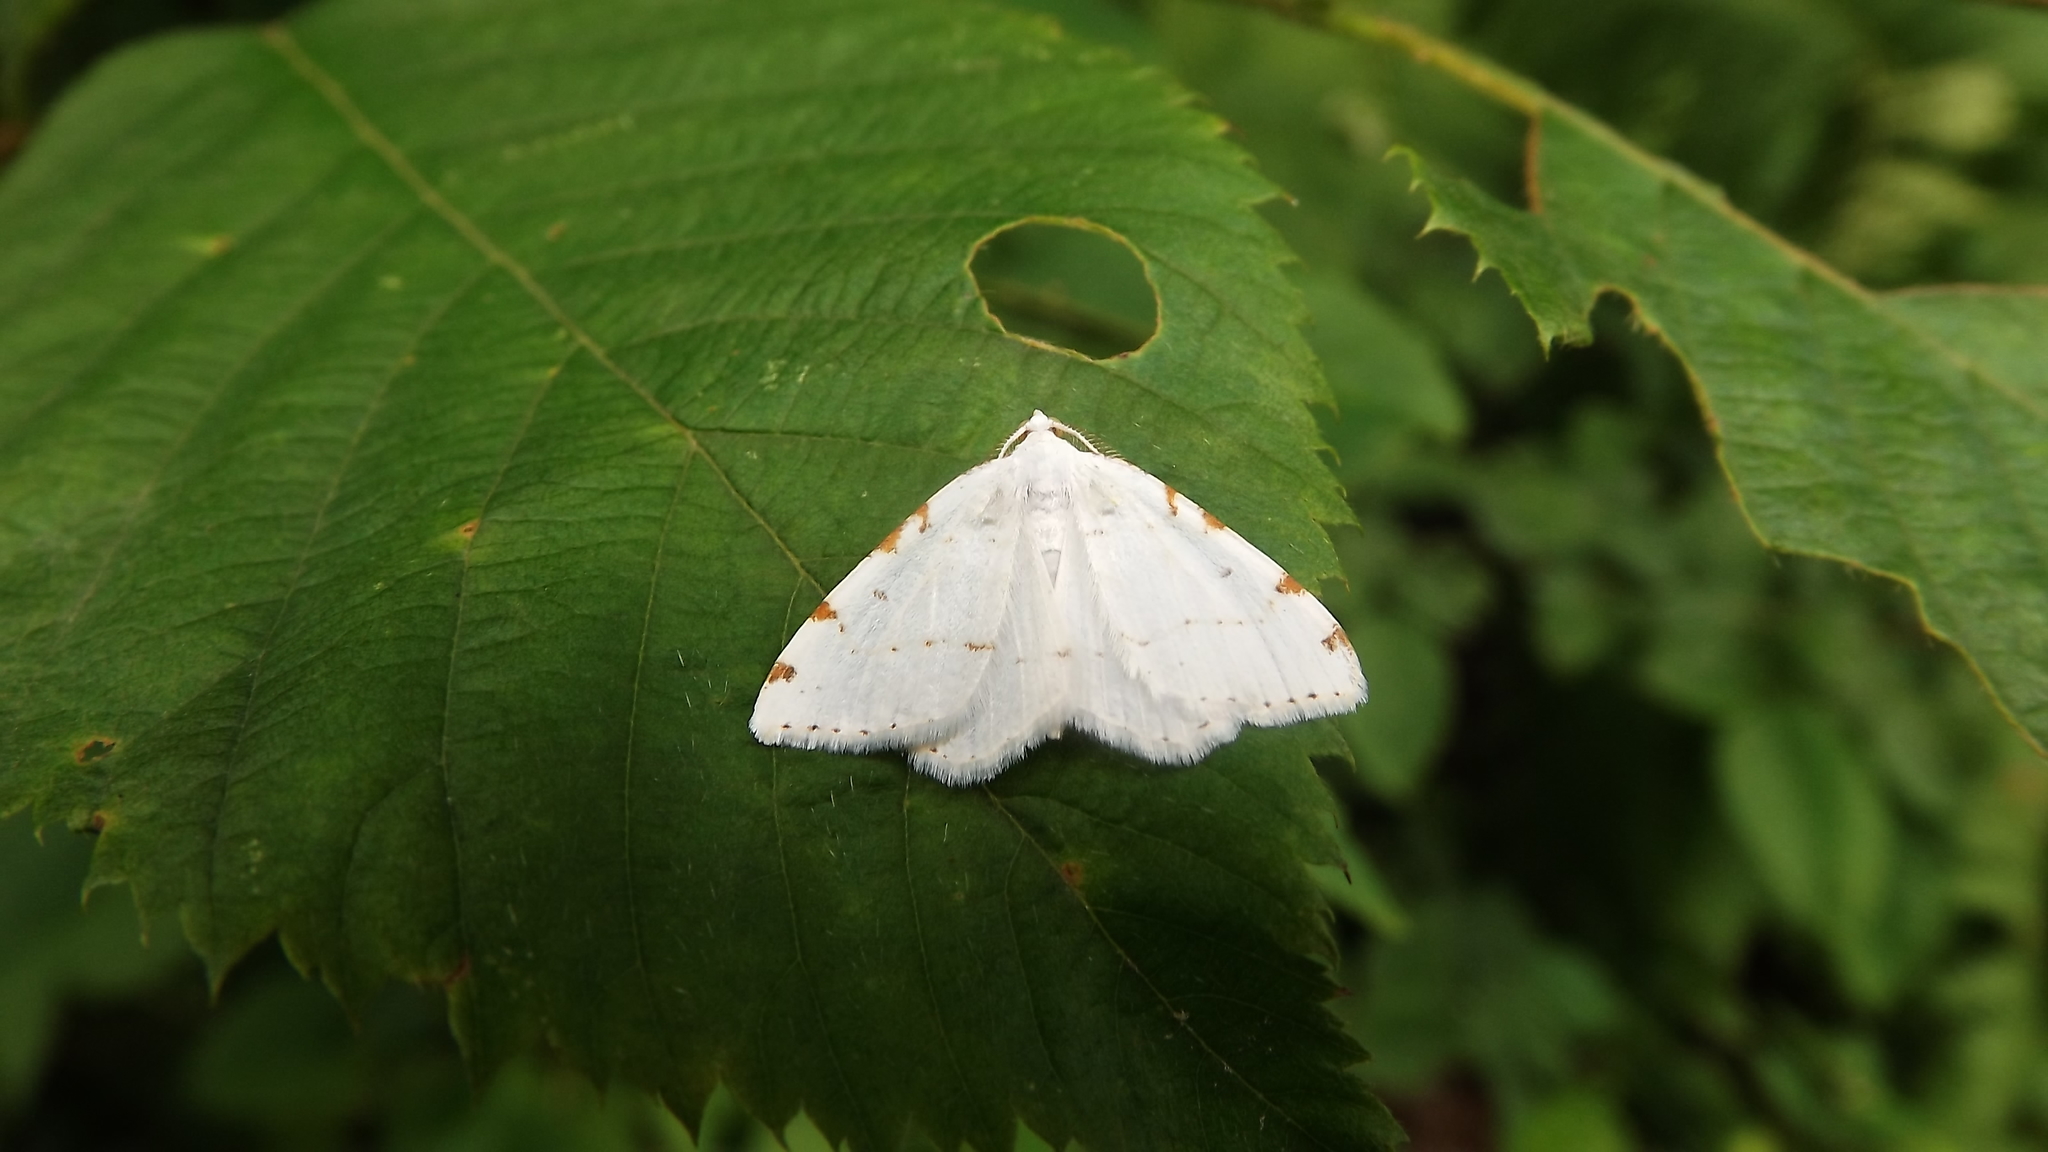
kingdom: Animalia
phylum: Arthropoda
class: Insecta
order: Lepidoptera
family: Geometridae
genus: Macaria
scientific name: Macaria pustularia
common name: Lesser maple spanworm moth
